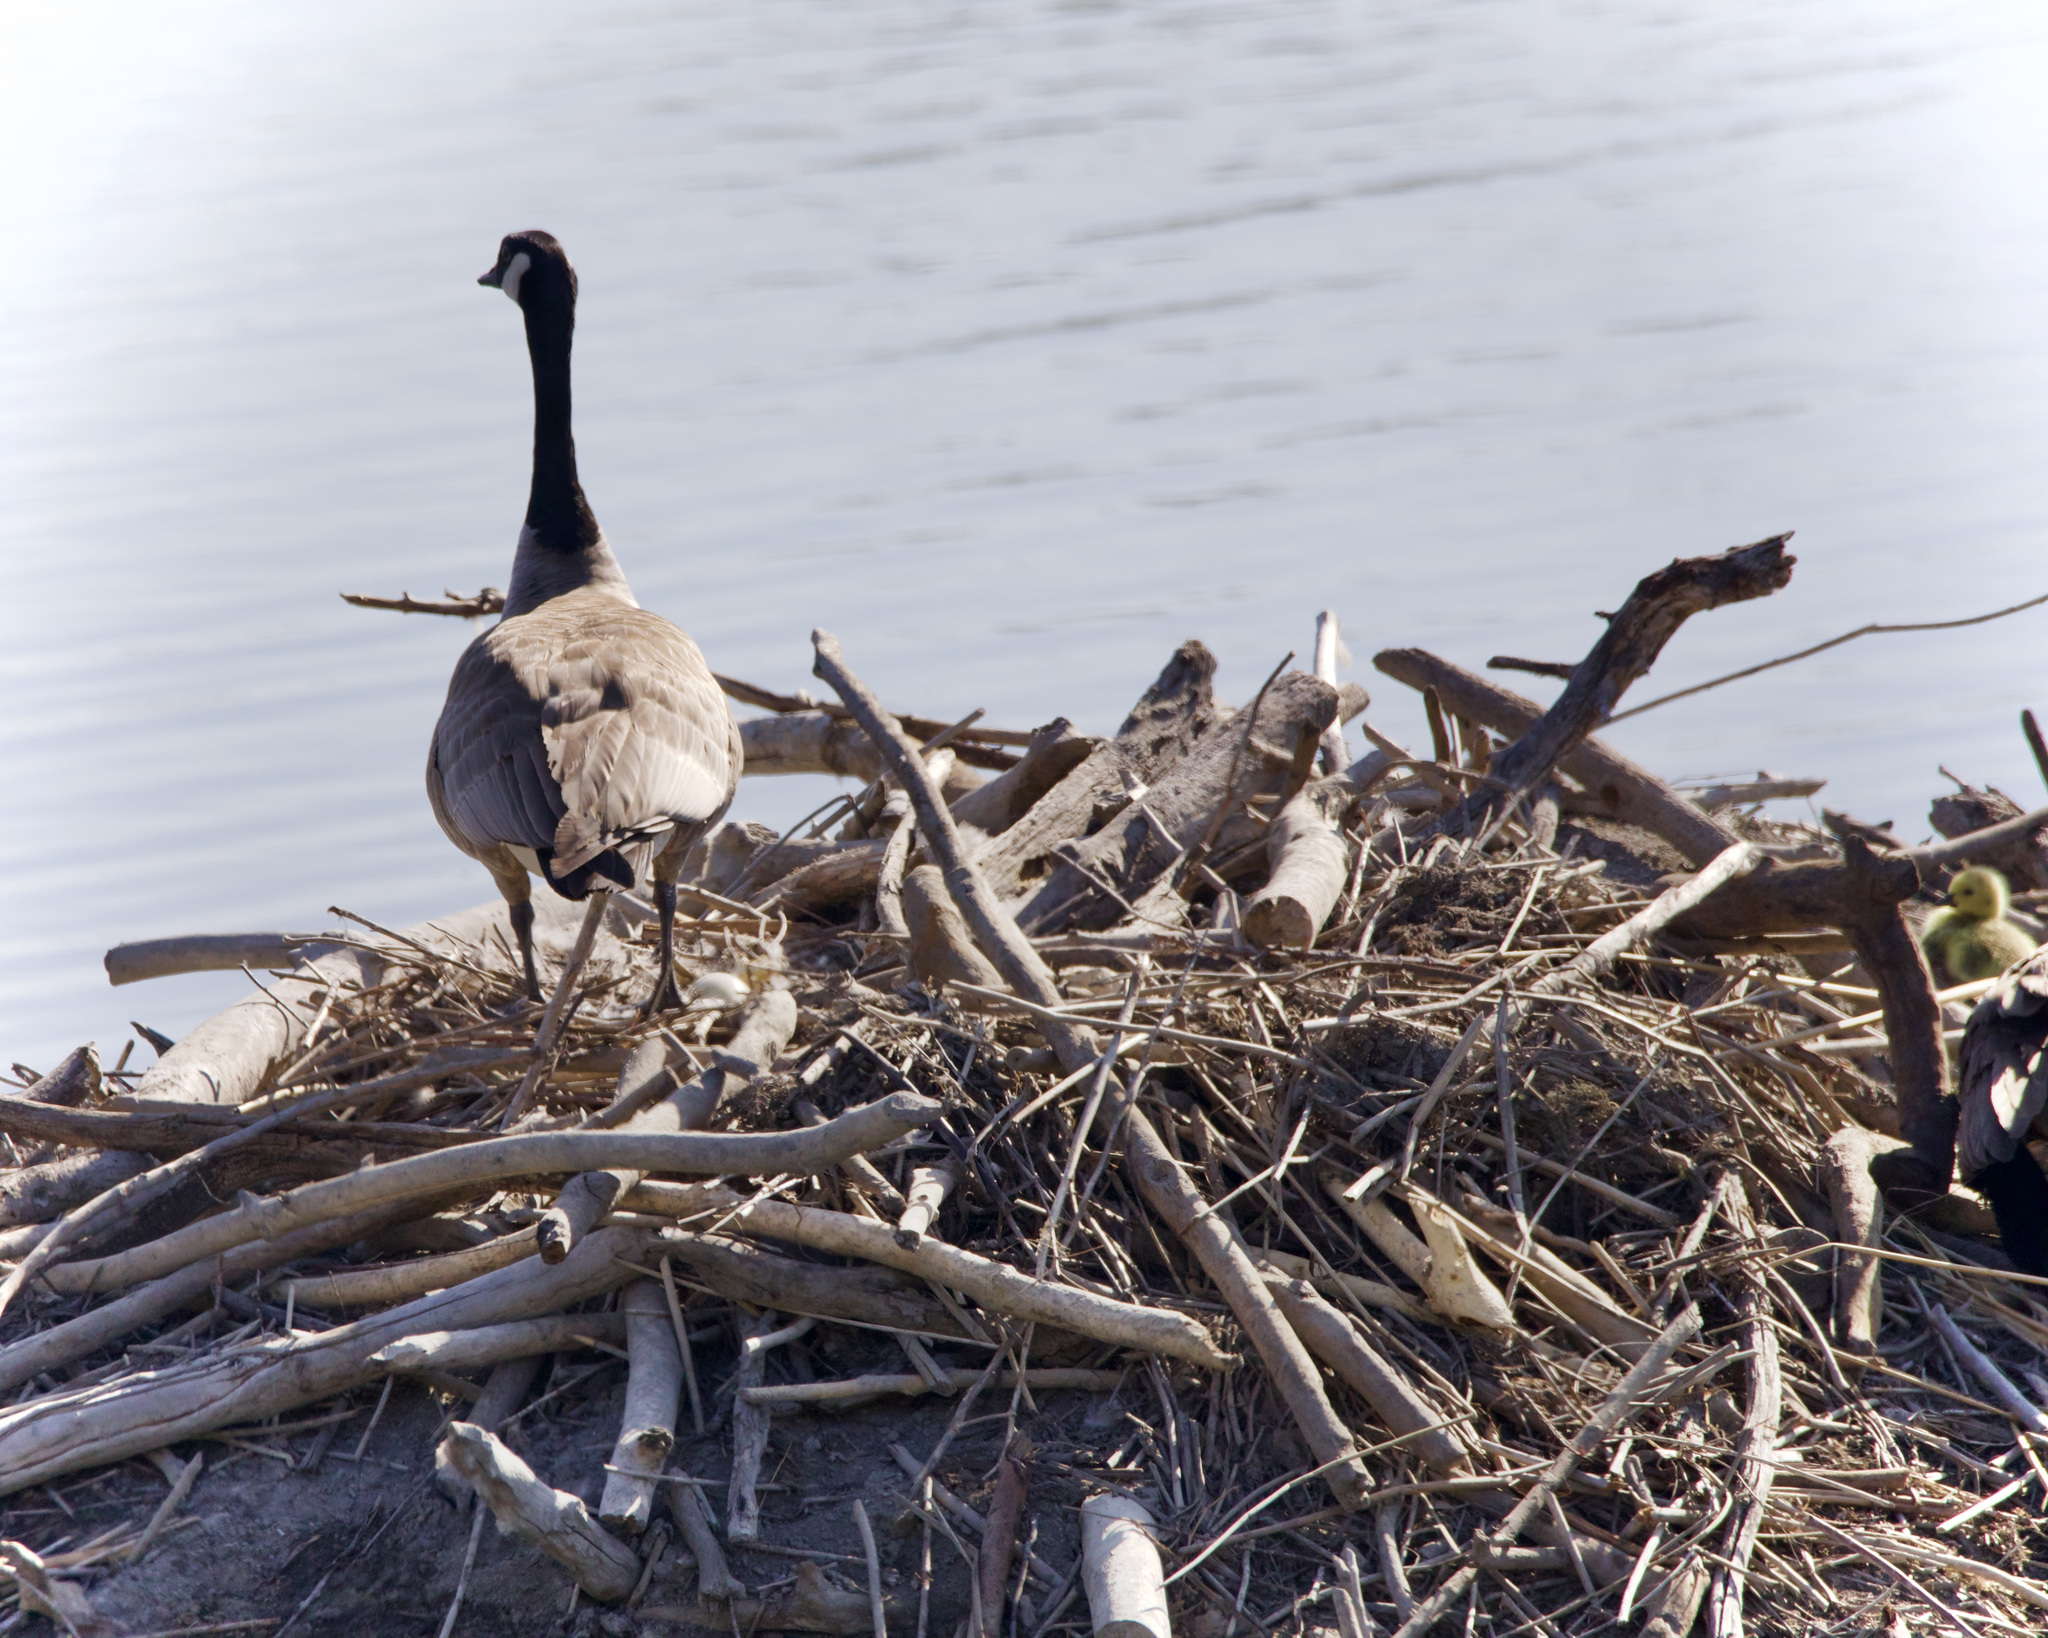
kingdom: Animalia
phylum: Chordata
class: Aves
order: Anseriformes
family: Anatidae
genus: Branta
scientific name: Branta canadensis
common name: Canada goose
